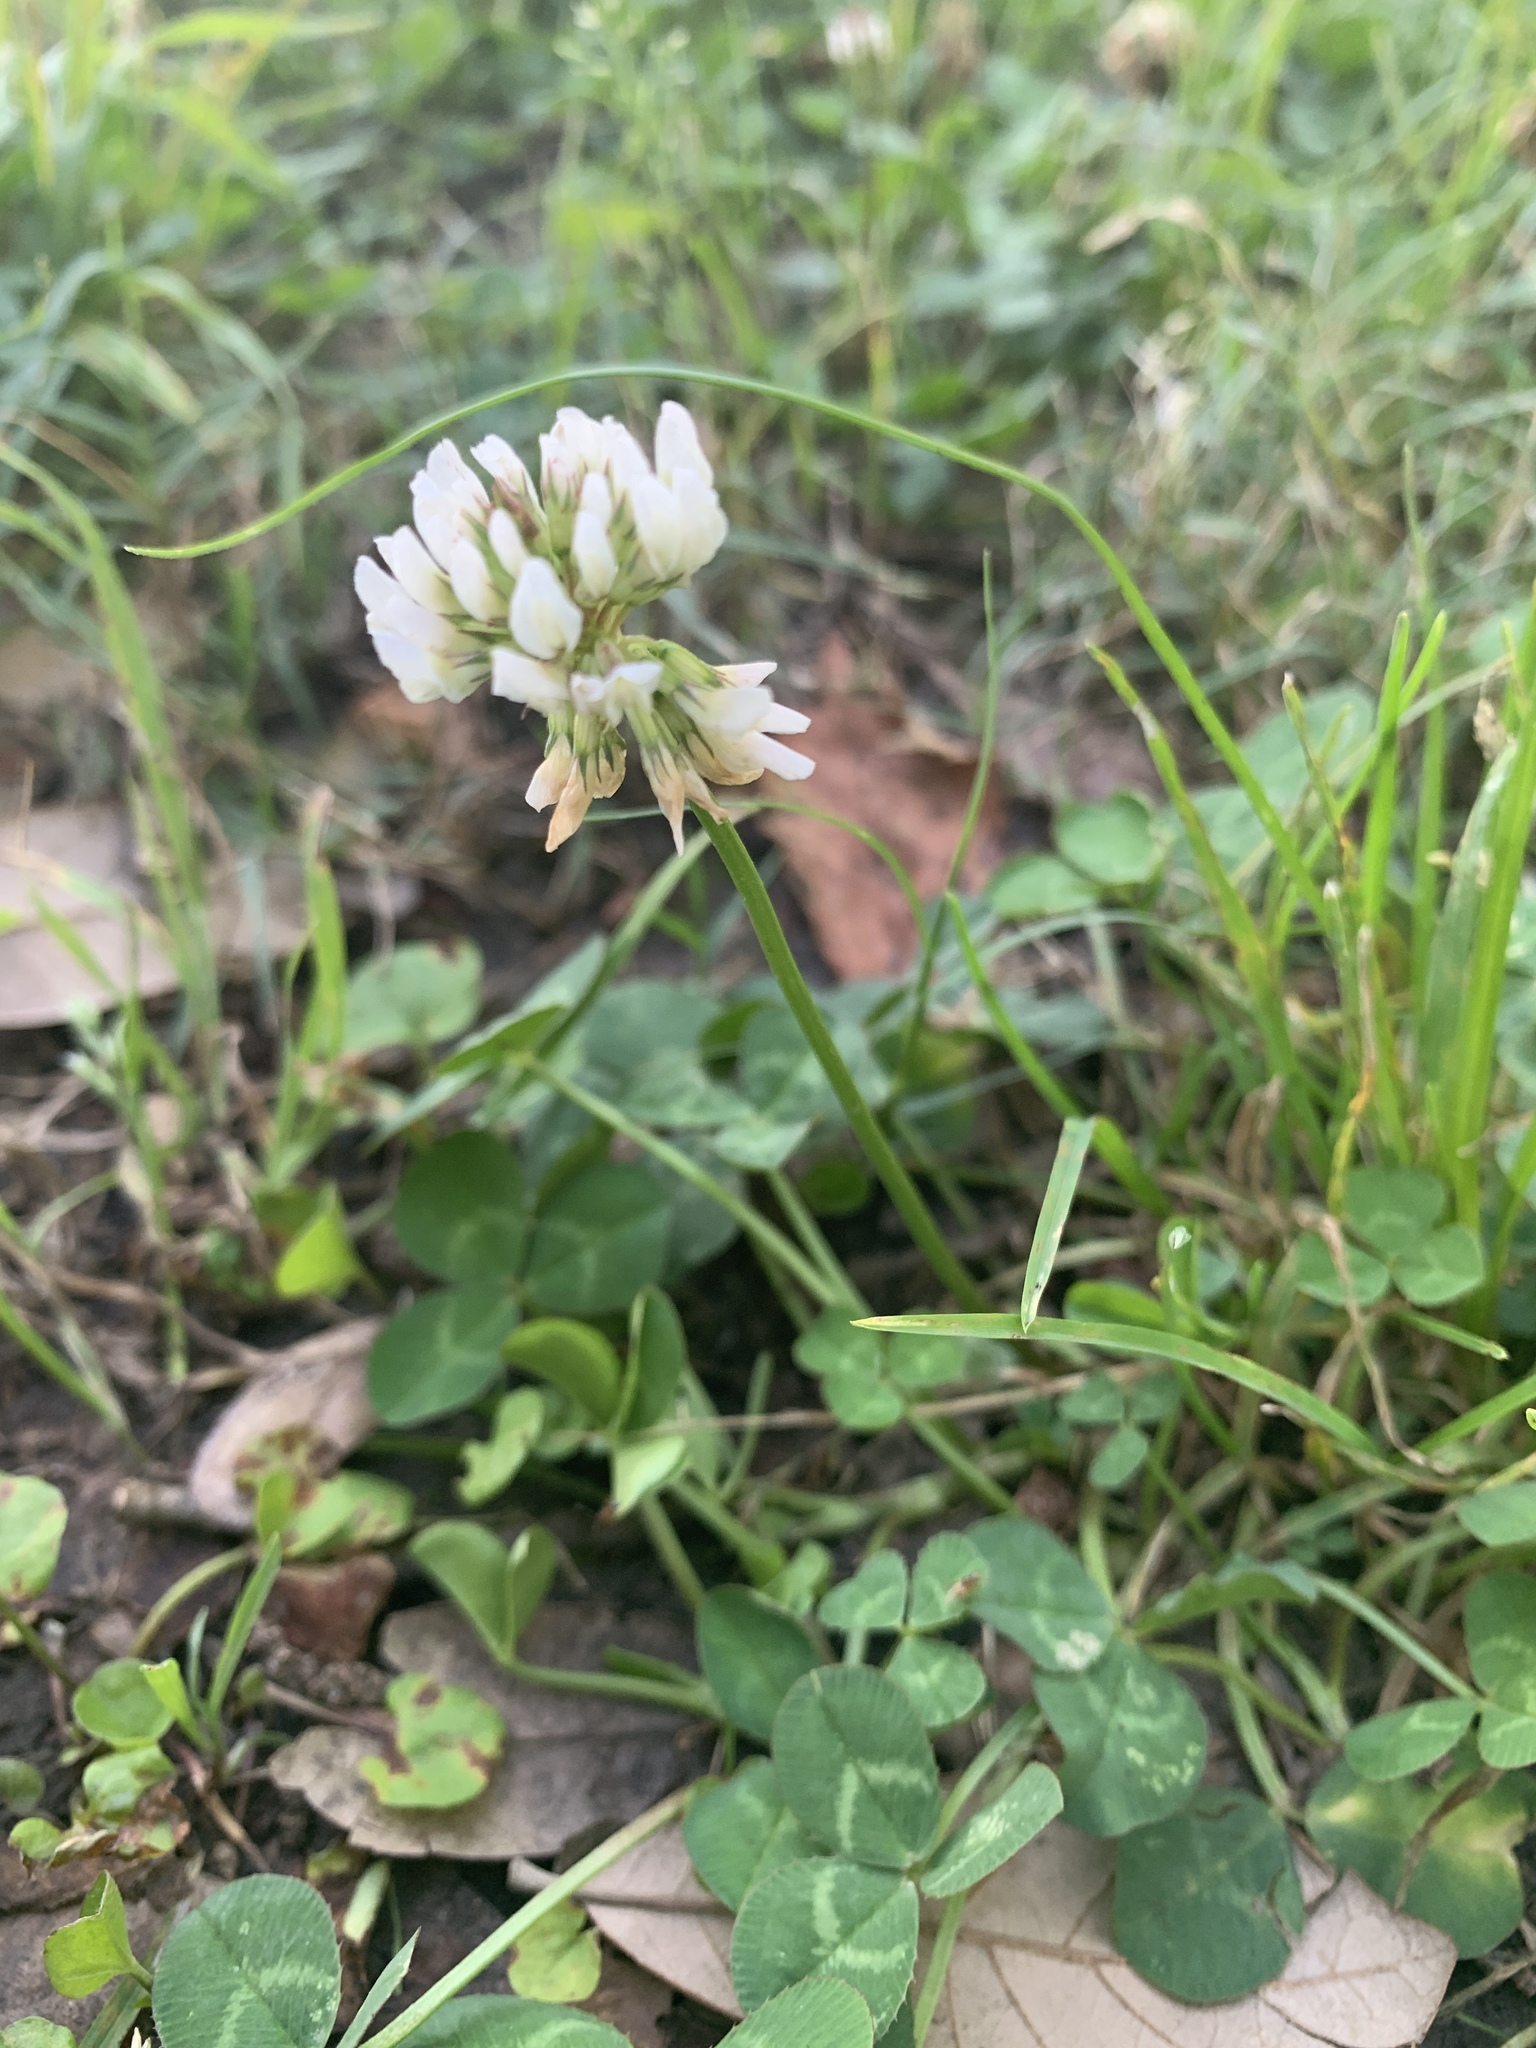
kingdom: Plantae
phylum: Tracheophyta
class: Magnoliopsida
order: Fabales
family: Fabaceae
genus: Trifolium
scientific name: Trifolium repens
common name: White clover
